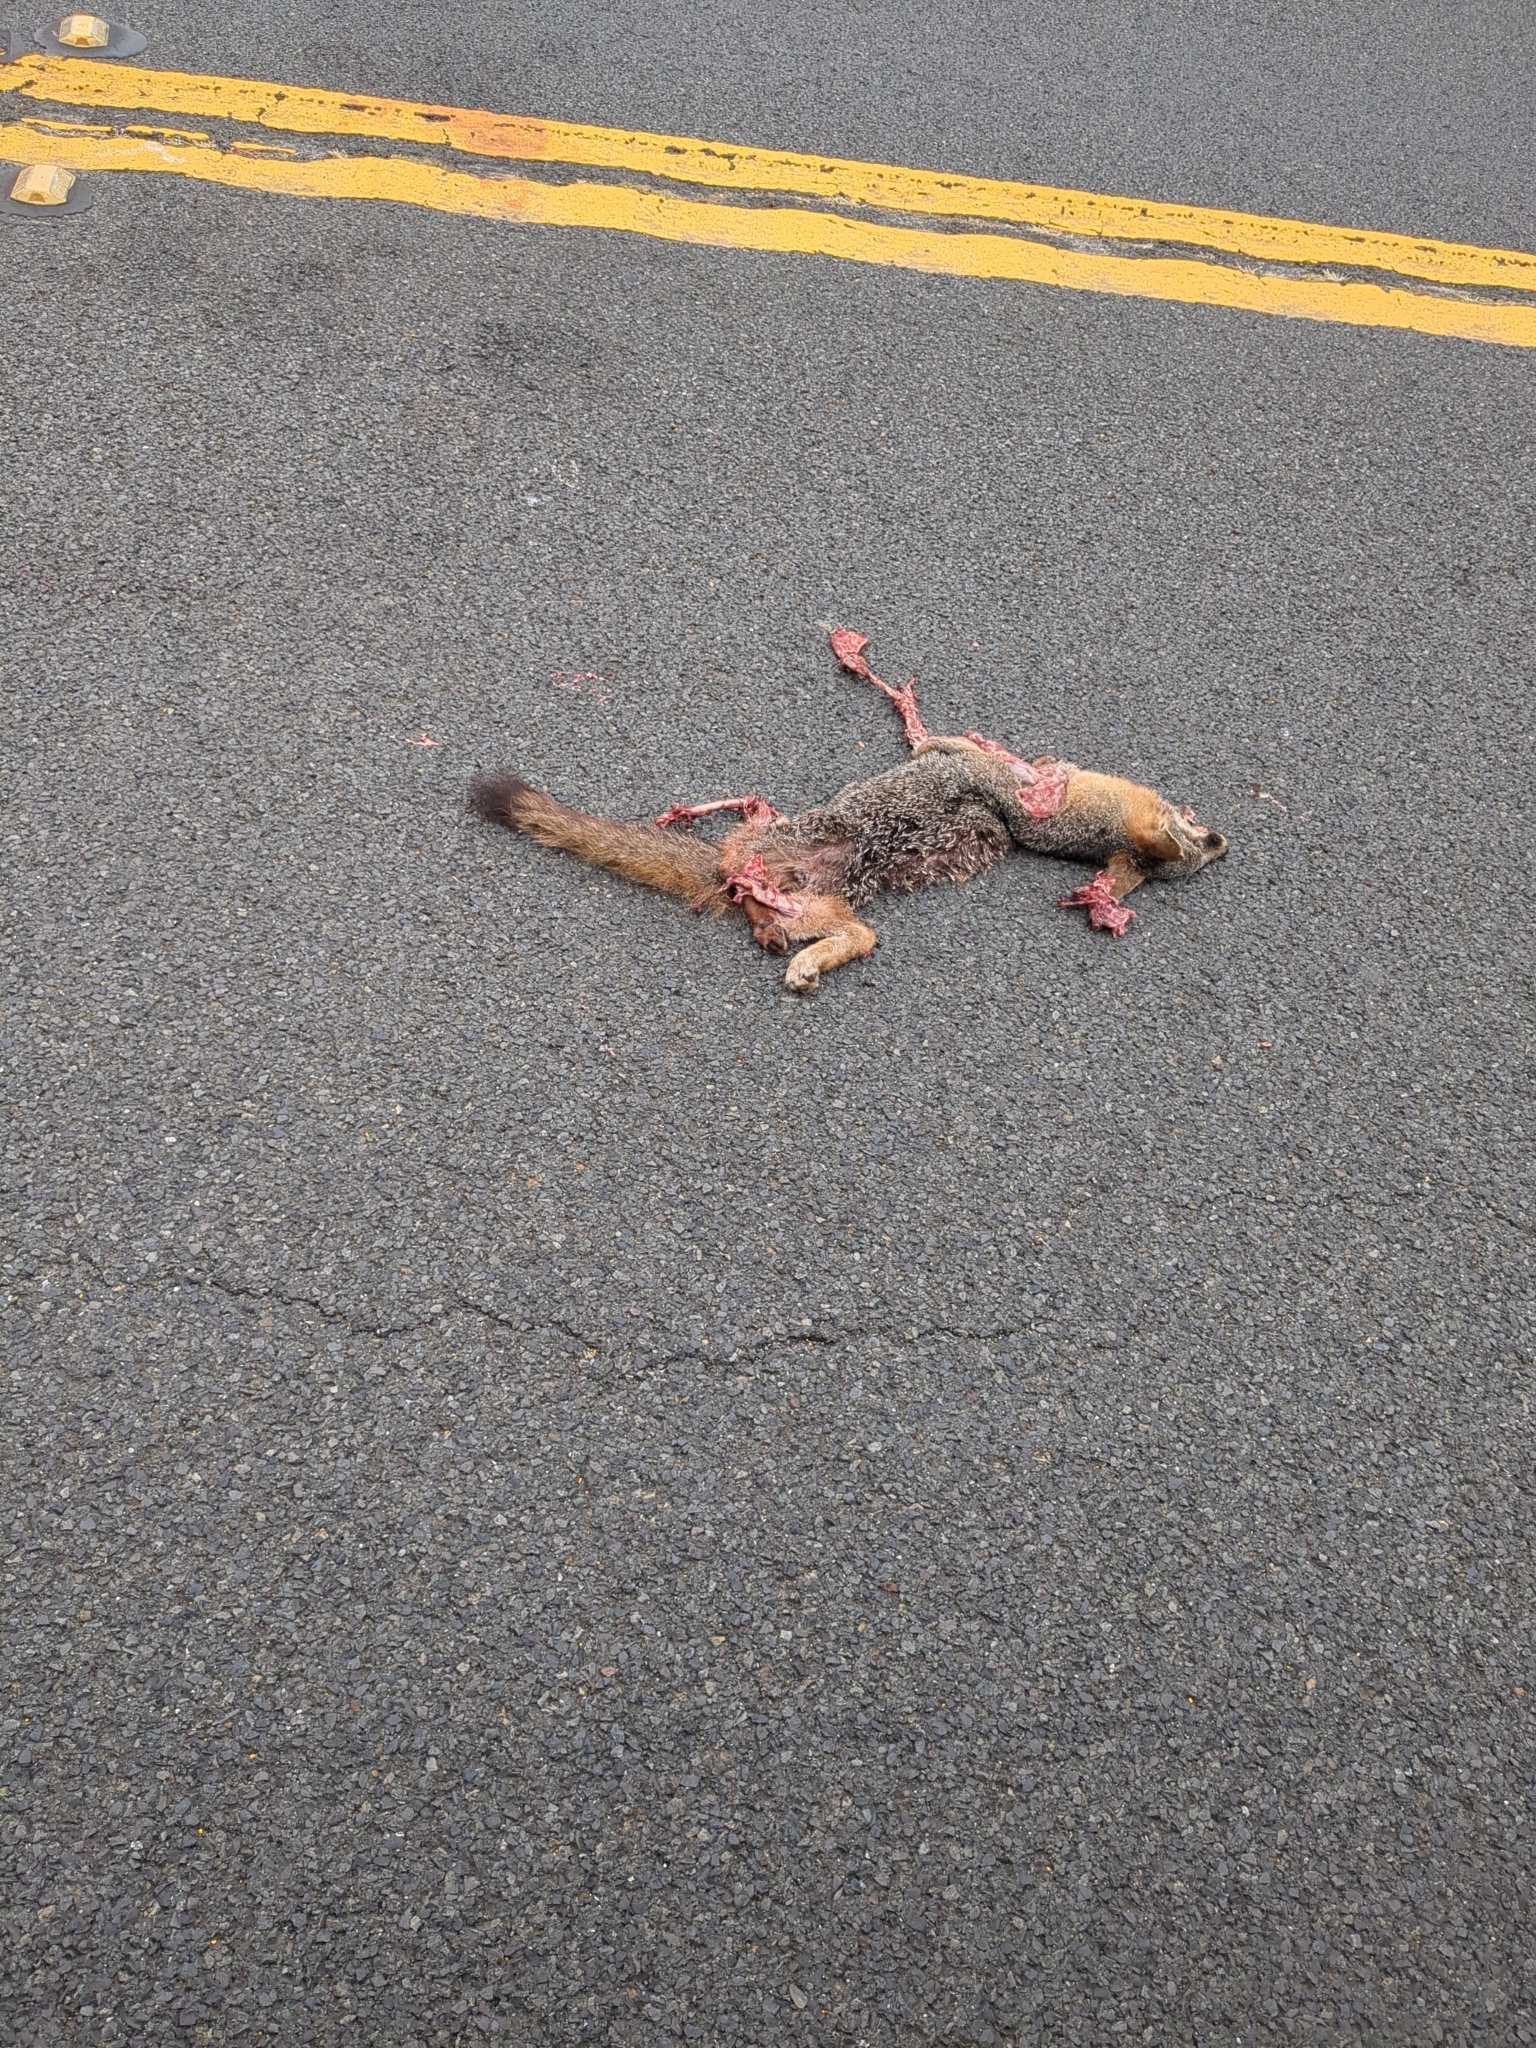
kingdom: Animalia
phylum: Chordata
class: Mammalia
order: Carnivora
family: Canidae
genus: Urocyon
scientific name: Urocyon cinereoargenteus
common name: Gray fox
